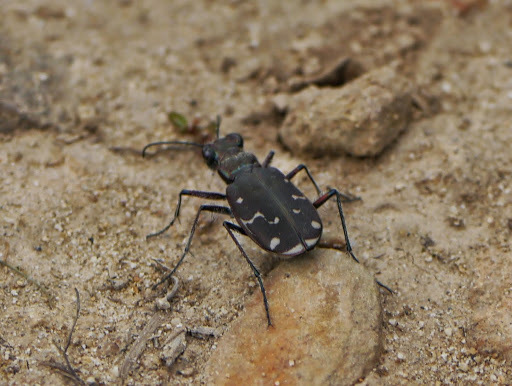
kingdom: Animalia
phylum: Arthropoda
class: Insecta
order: Coleoptera
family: Carabidae
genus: Cicindela
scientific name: Cicindela duodecimguttata
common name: Twelve-spotted tiger beetle
